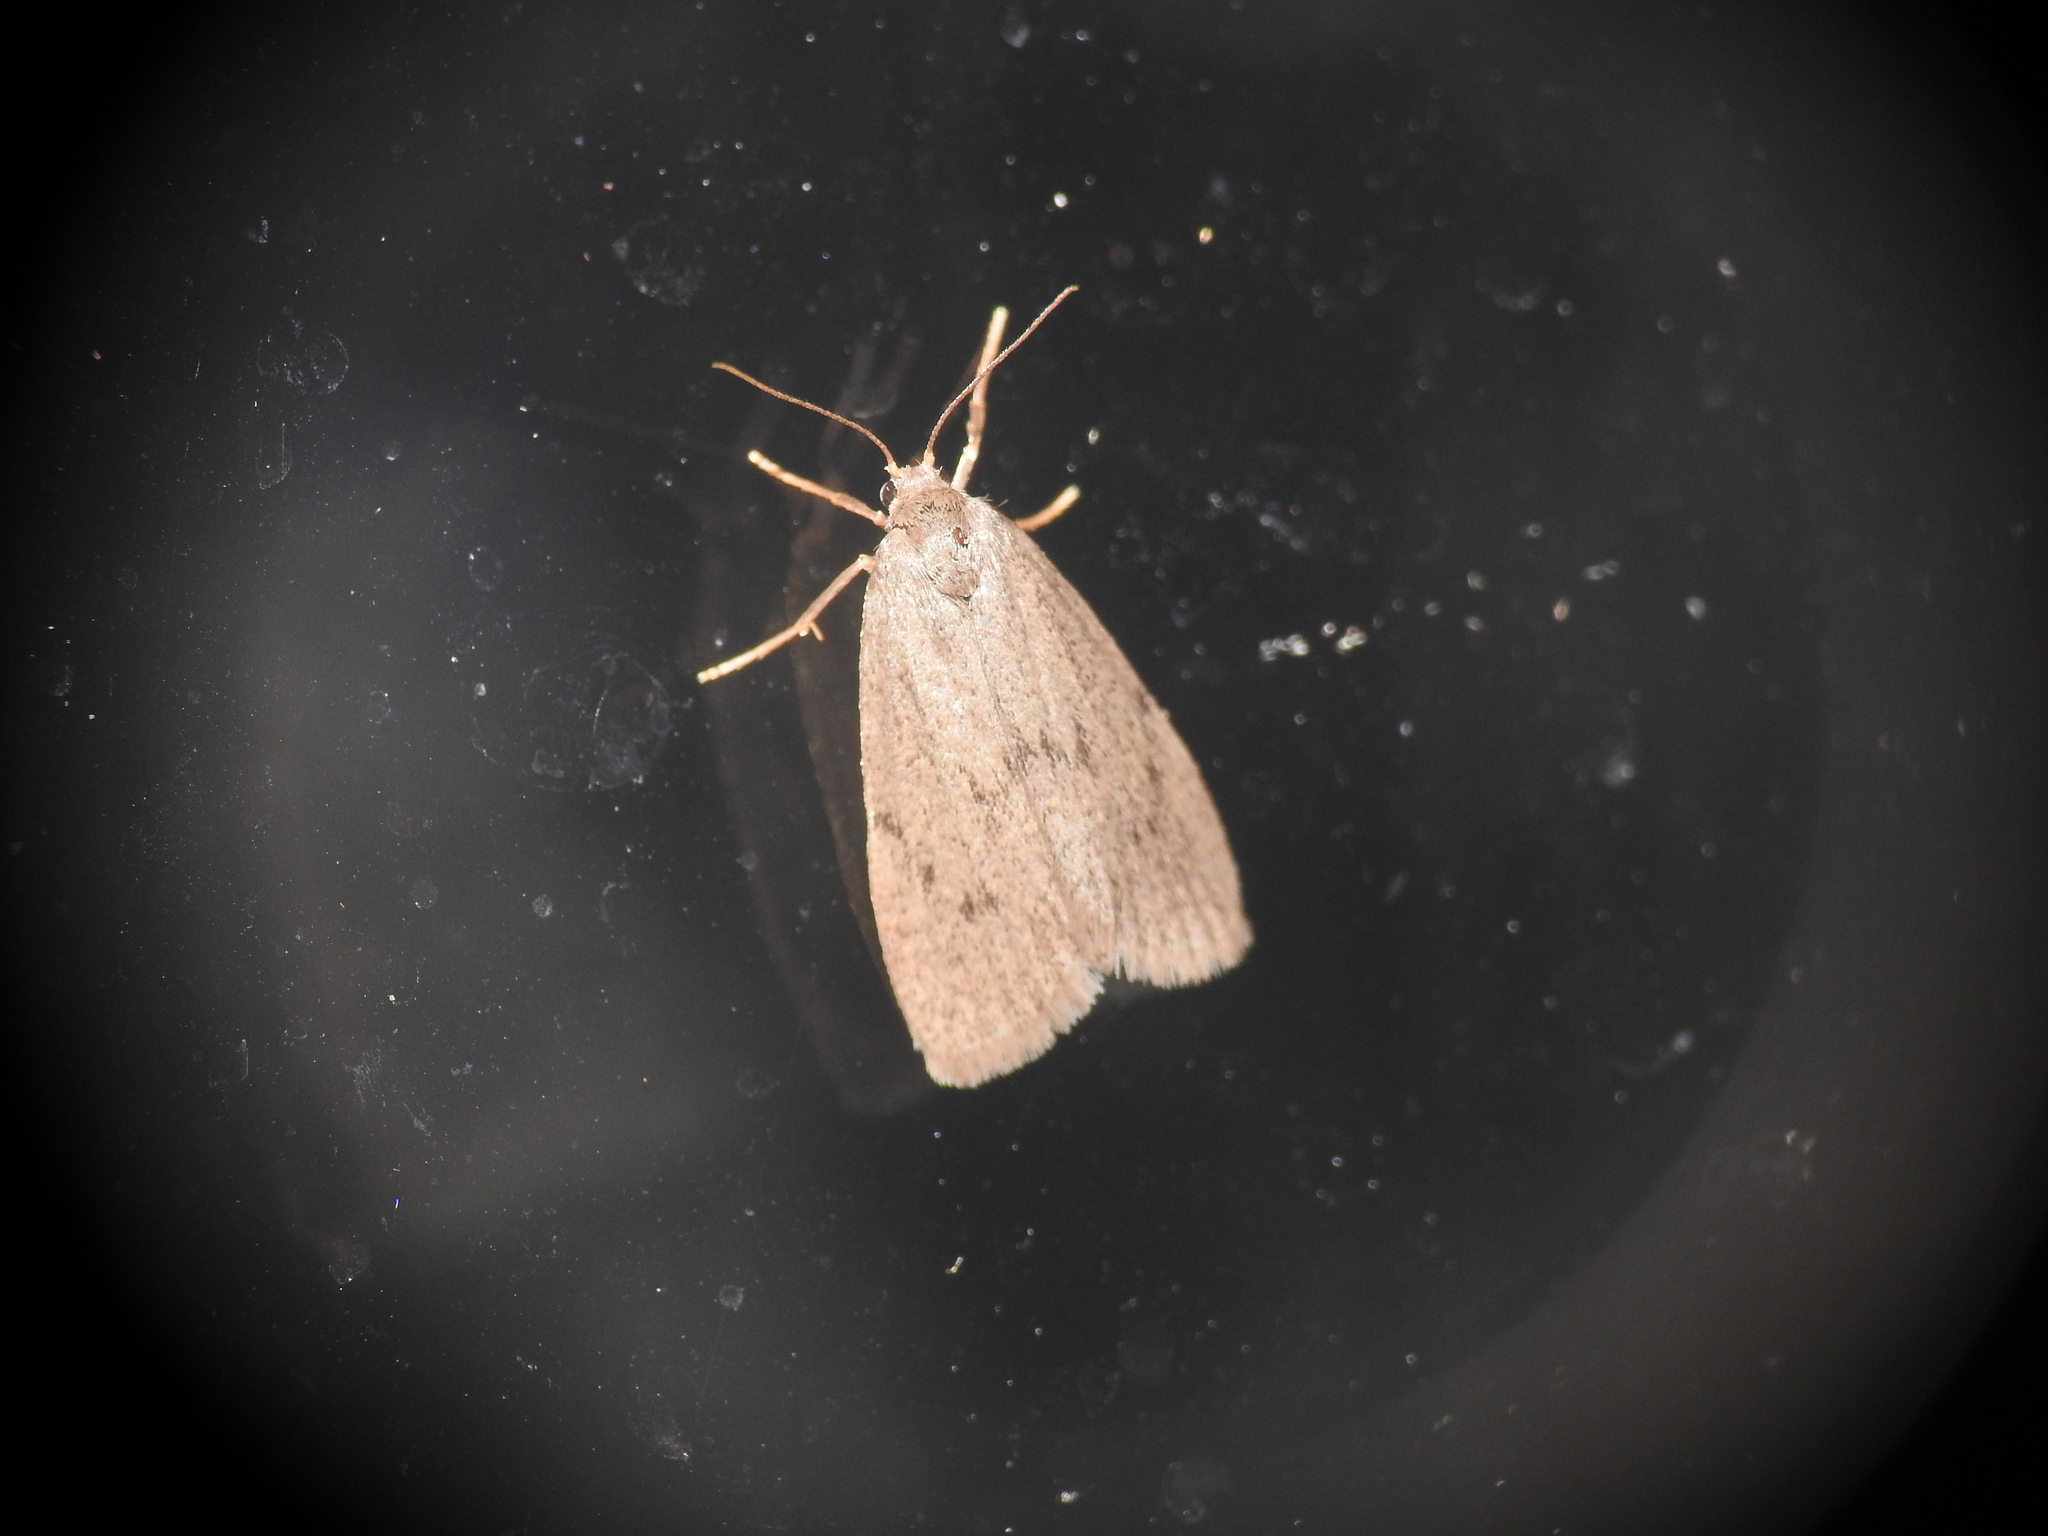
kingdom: Animalia
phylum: Arthropoda
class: Insecta
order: Lepidoptera
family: Erebidae
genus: Apaidia
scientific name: Apaidia mesogona
